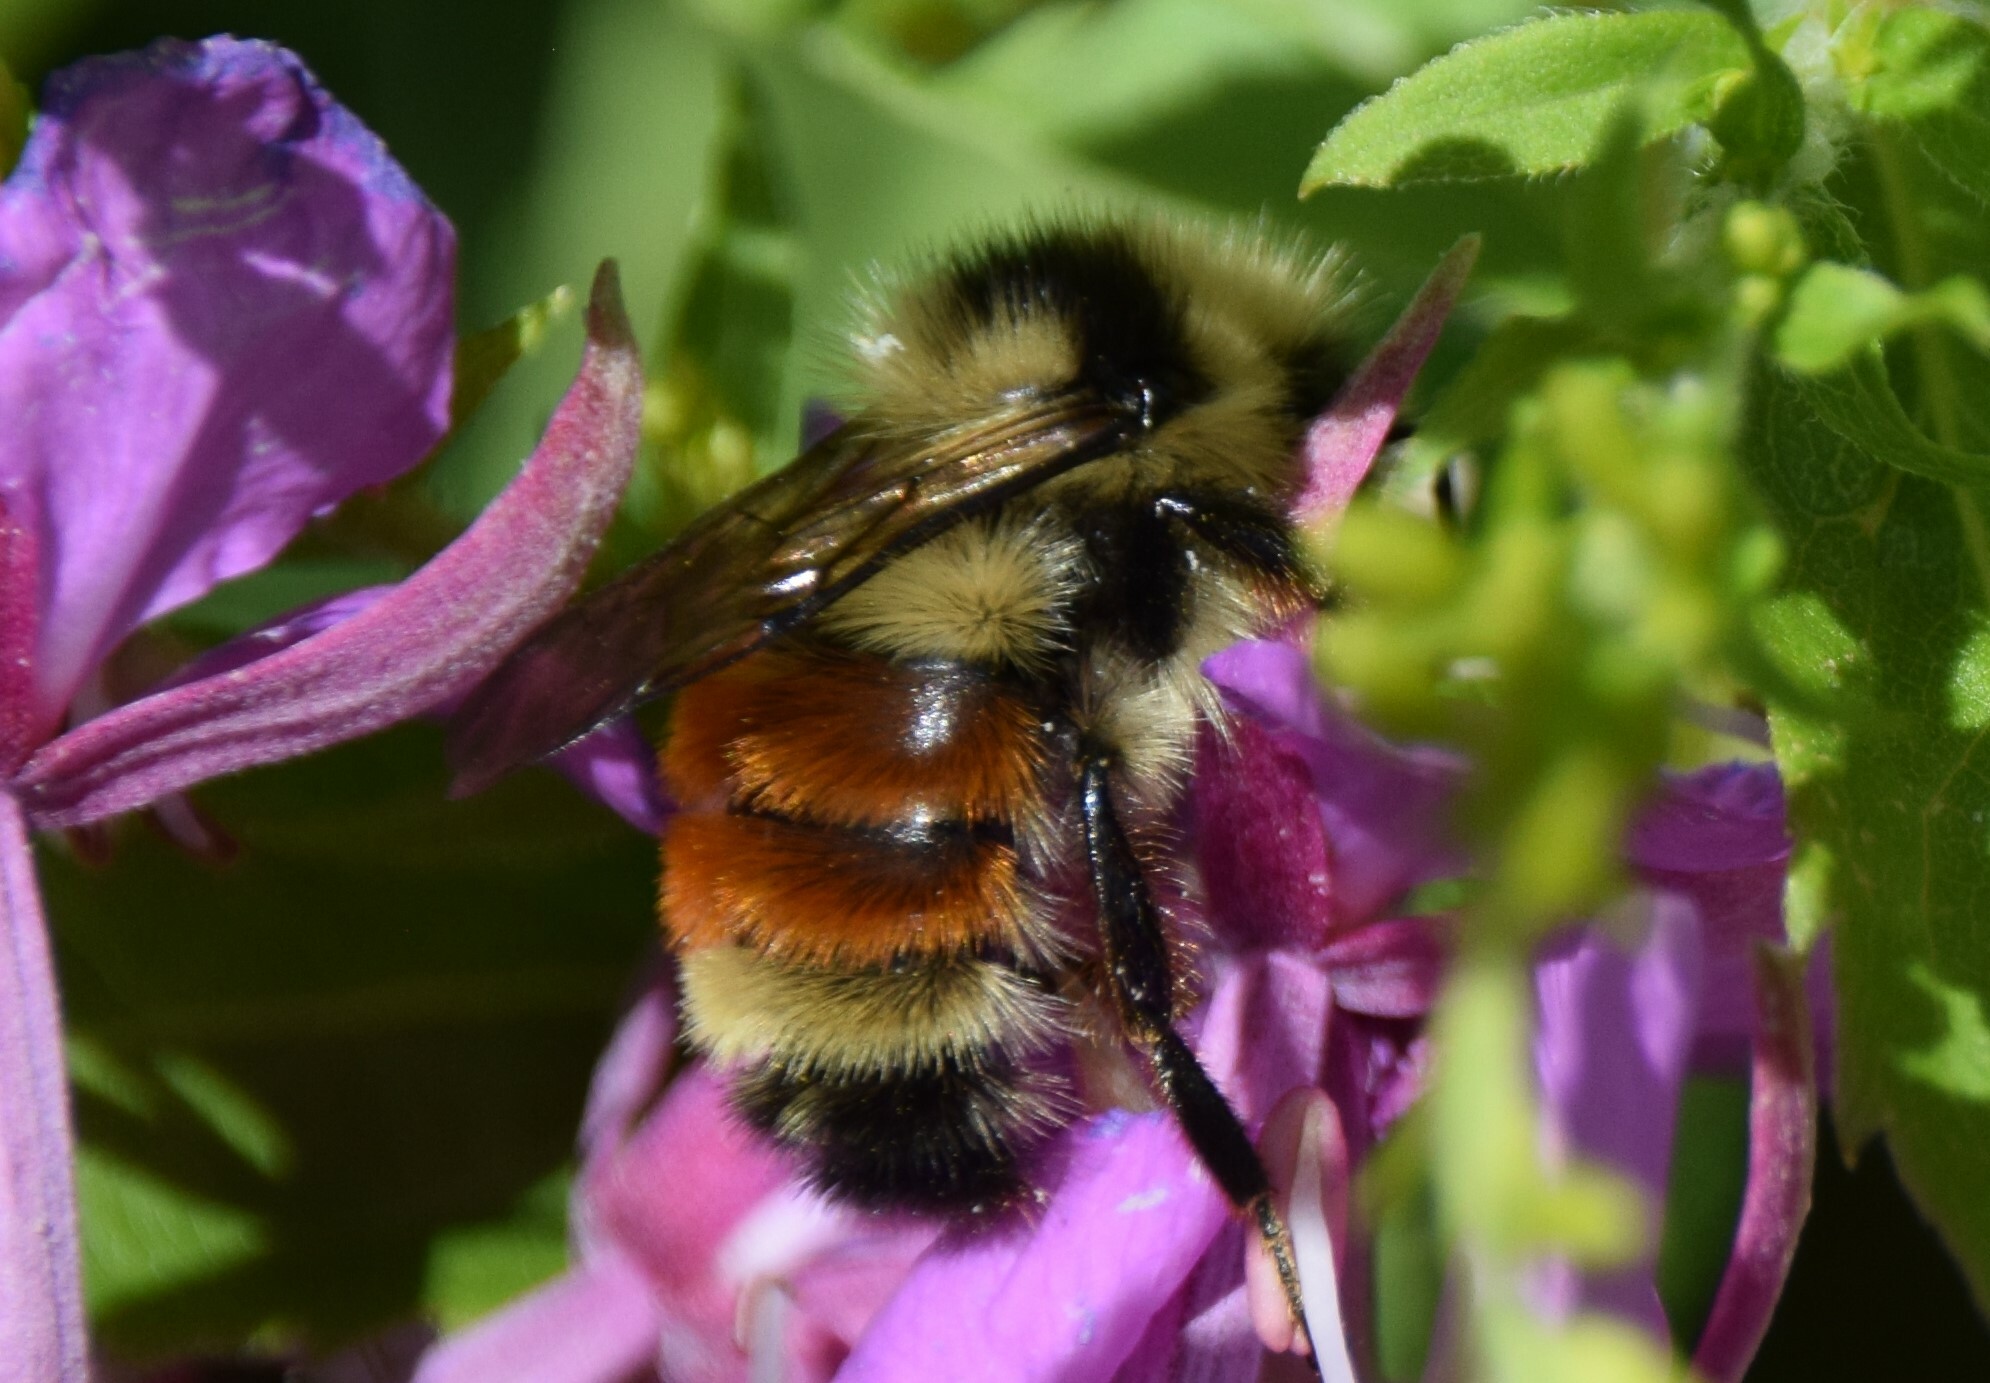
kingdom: Animalia
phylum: Arthropoda
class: Insecta
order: Hymenoptera
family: Apidae
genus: Bombus
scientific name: Bombus ternarius
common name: Tri-colored bumble bee
